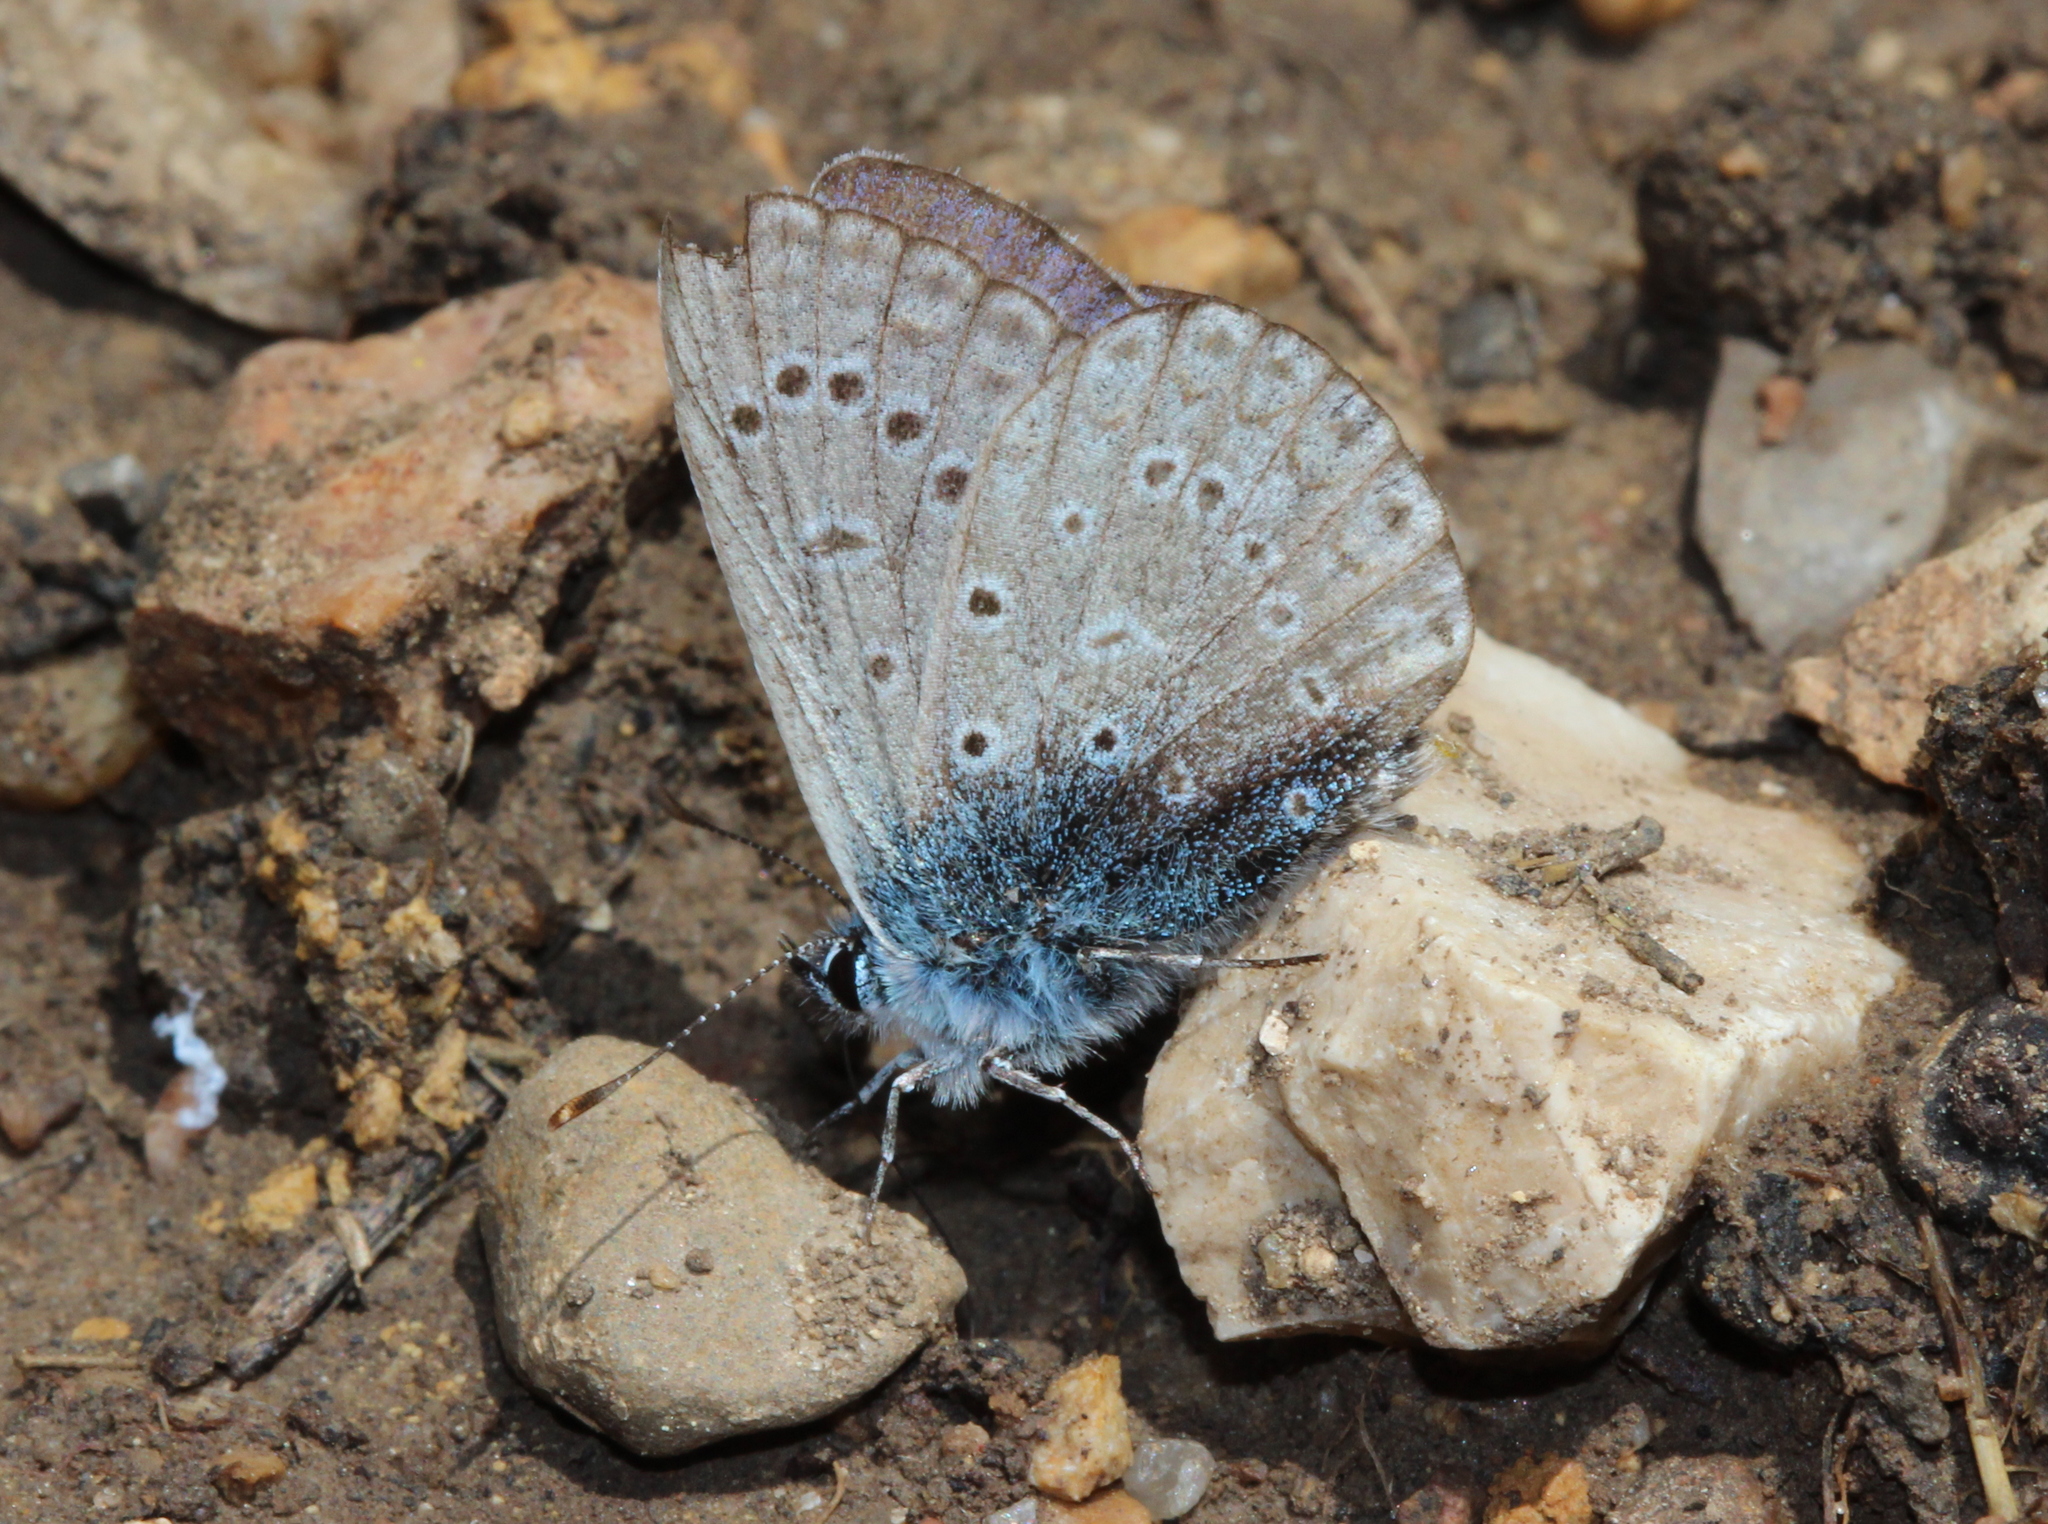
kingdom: Animalia
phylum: Arthropoda
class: Insecta
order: Lepidoptera
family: Lycaenidae
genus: Polyommatus
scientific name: Polyommatus icarus
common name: Common blue
